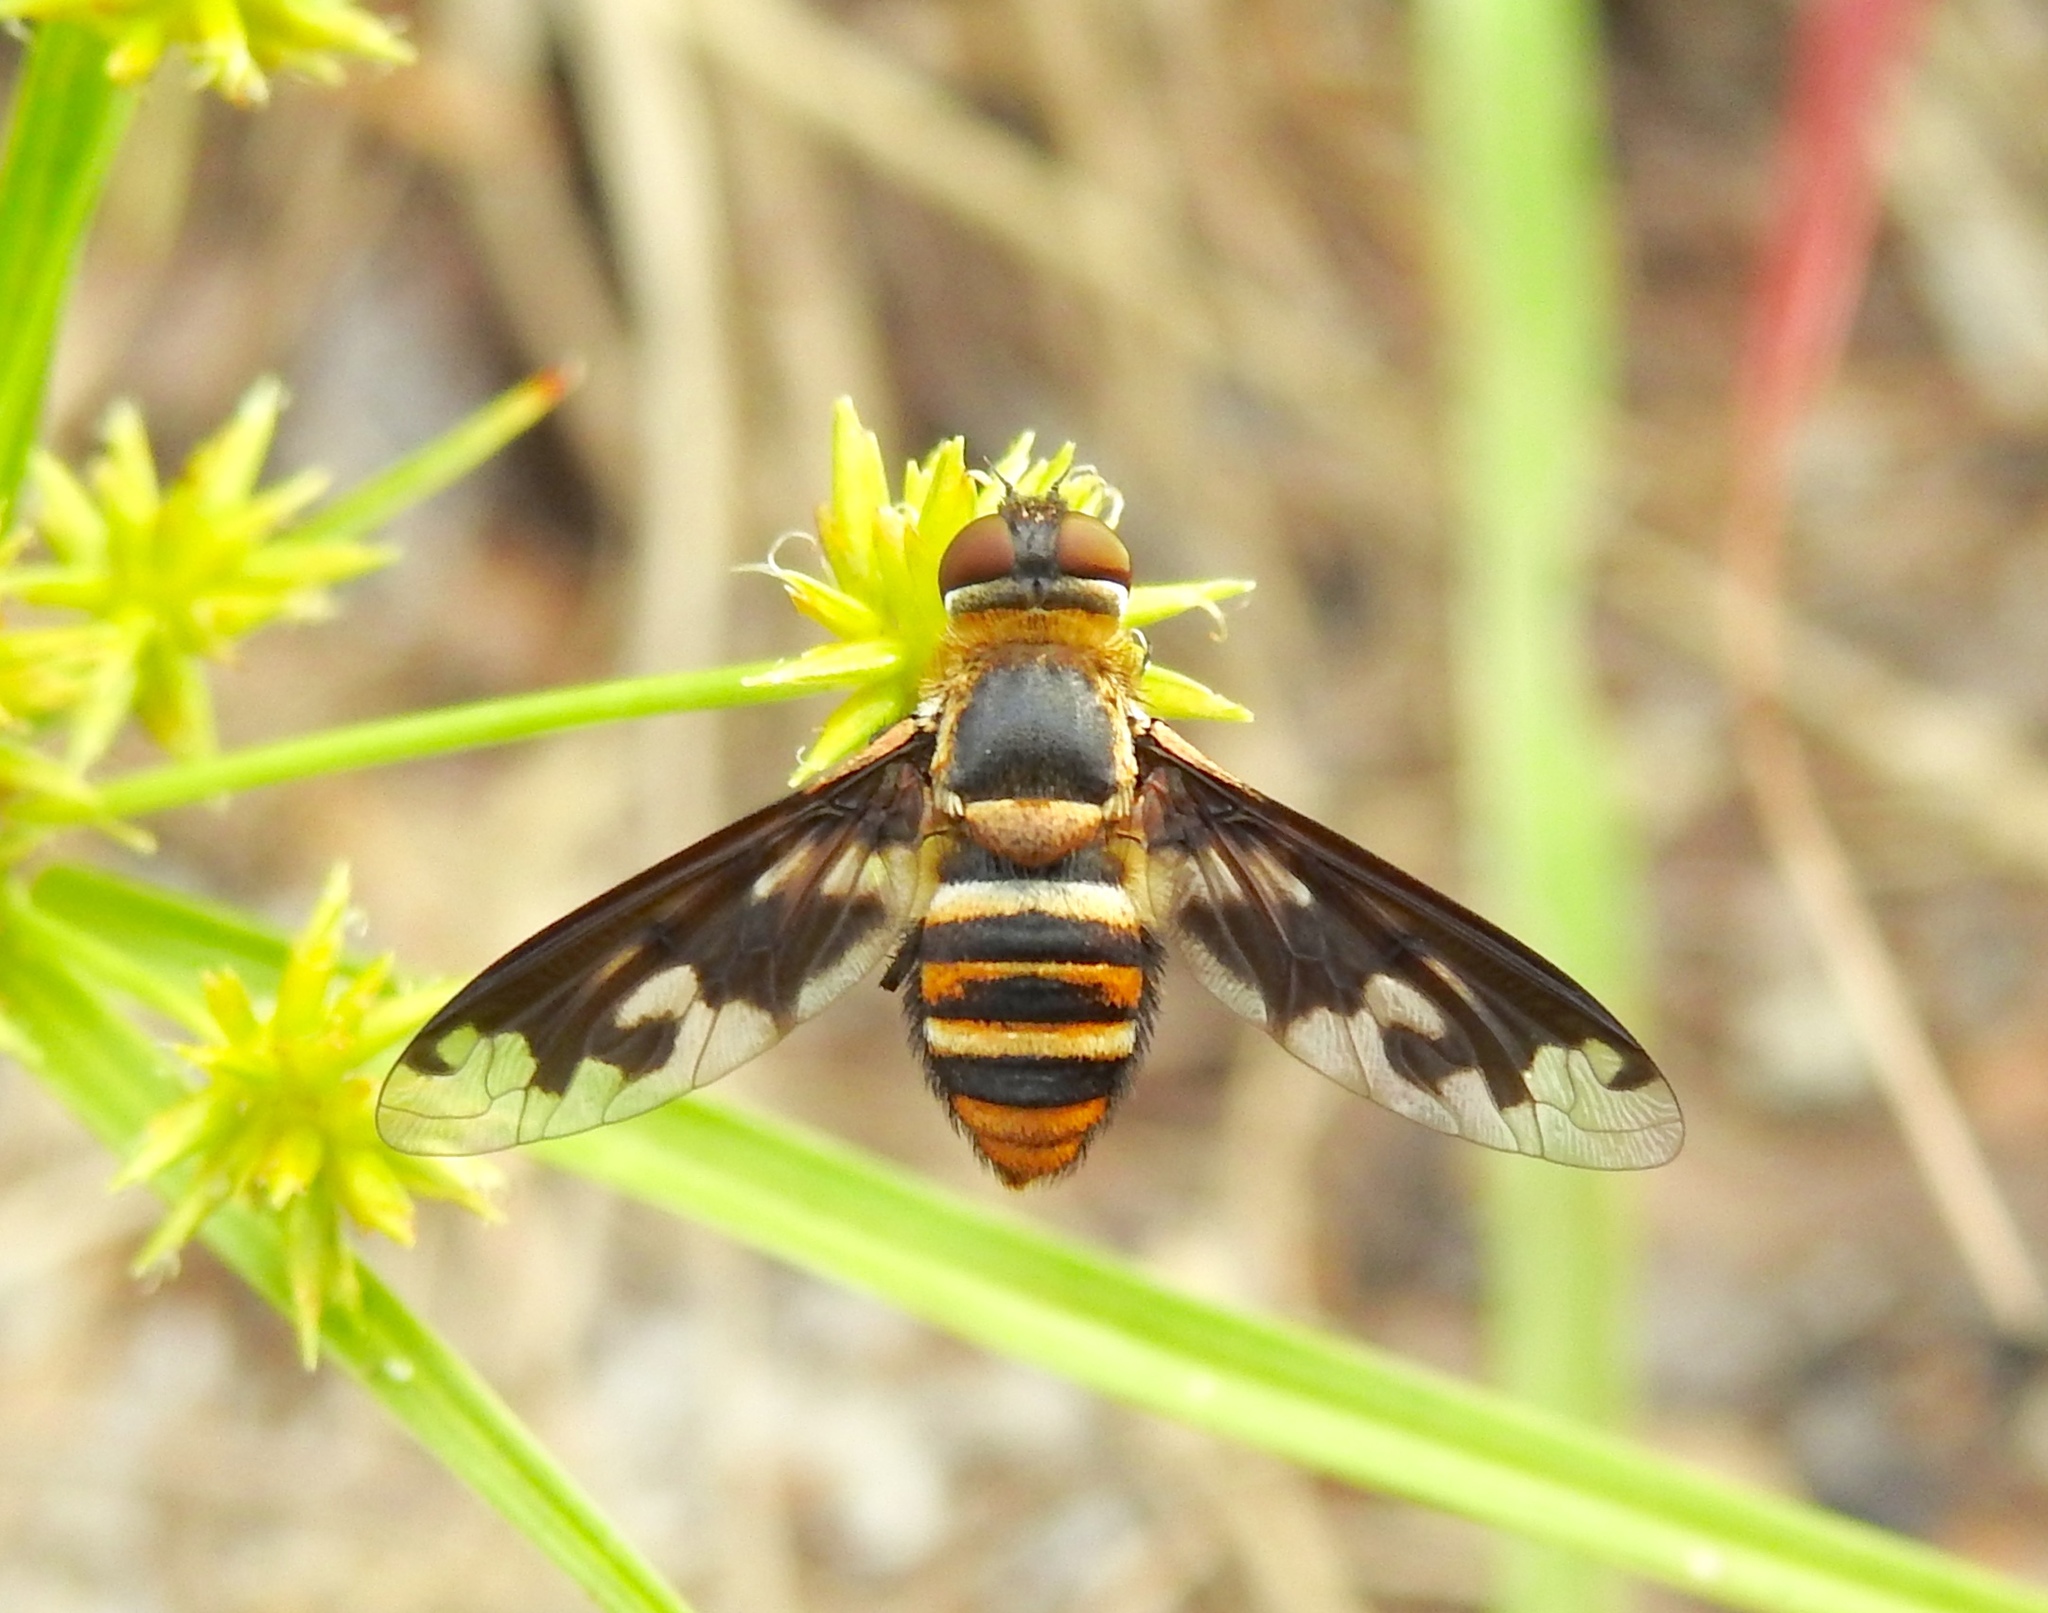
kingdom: Animalia
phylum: Arthropoda
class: Insecta
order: Diptera
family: Bombyliidae
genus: Exoprosopa
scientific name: Exoprosopa fascipennis
